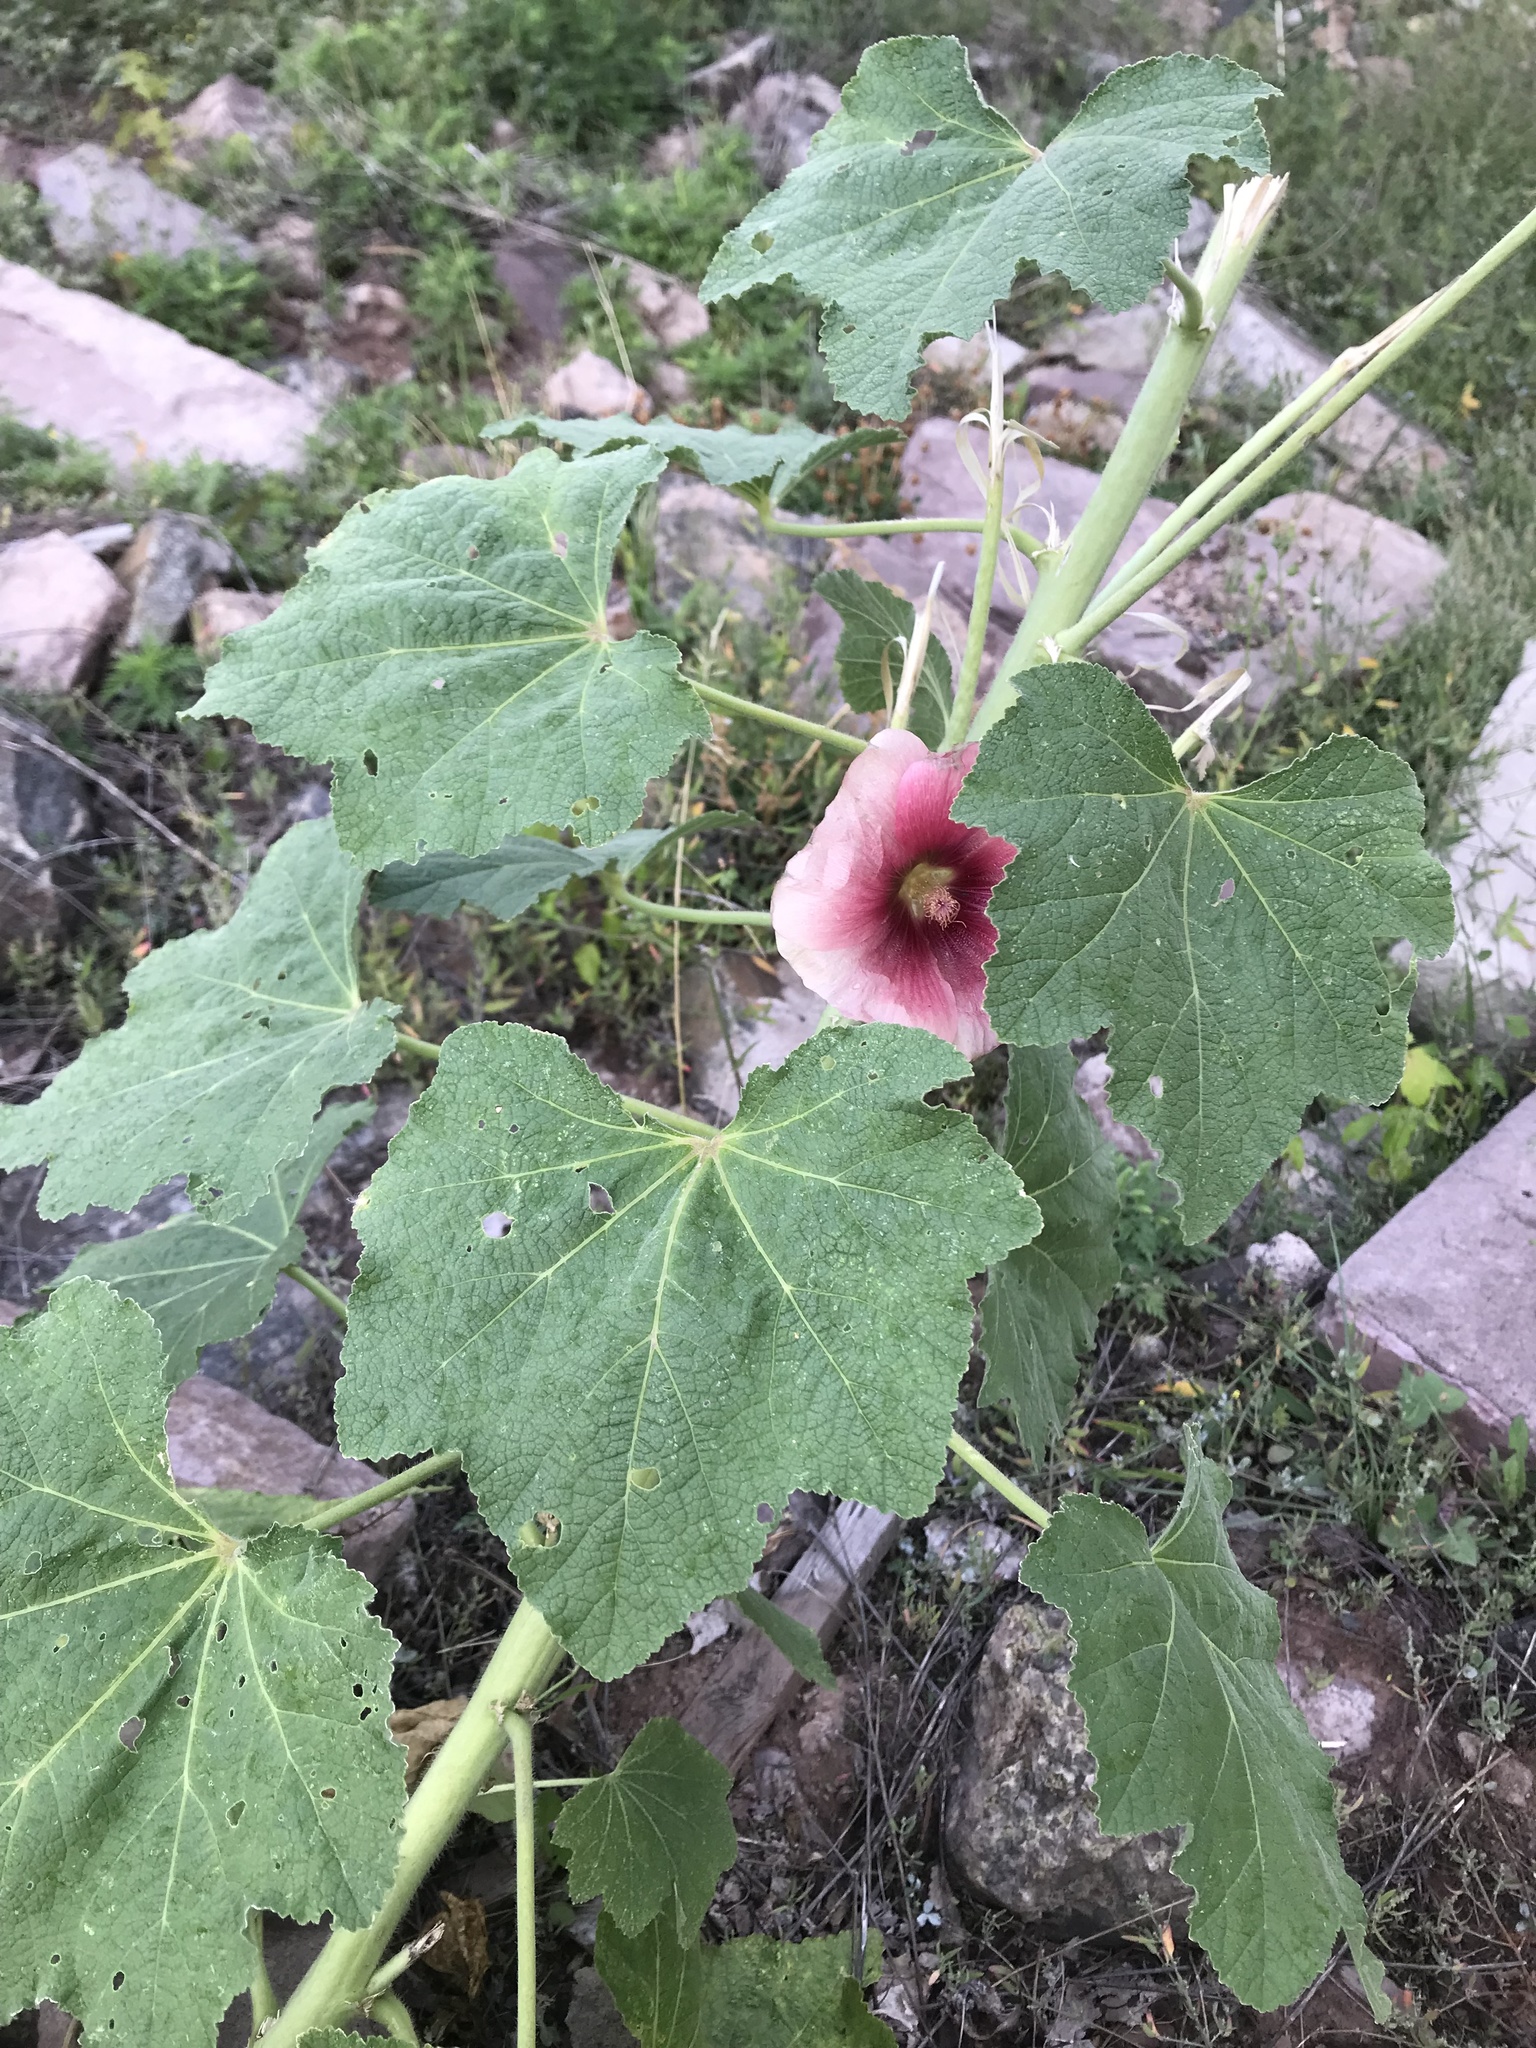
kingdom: Plantae
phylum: Tracheophyta
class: Magnoliopsida
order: Malvales
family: Malvaceae
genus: Alcea
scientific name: Alcea rosea
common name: Hollyhock
